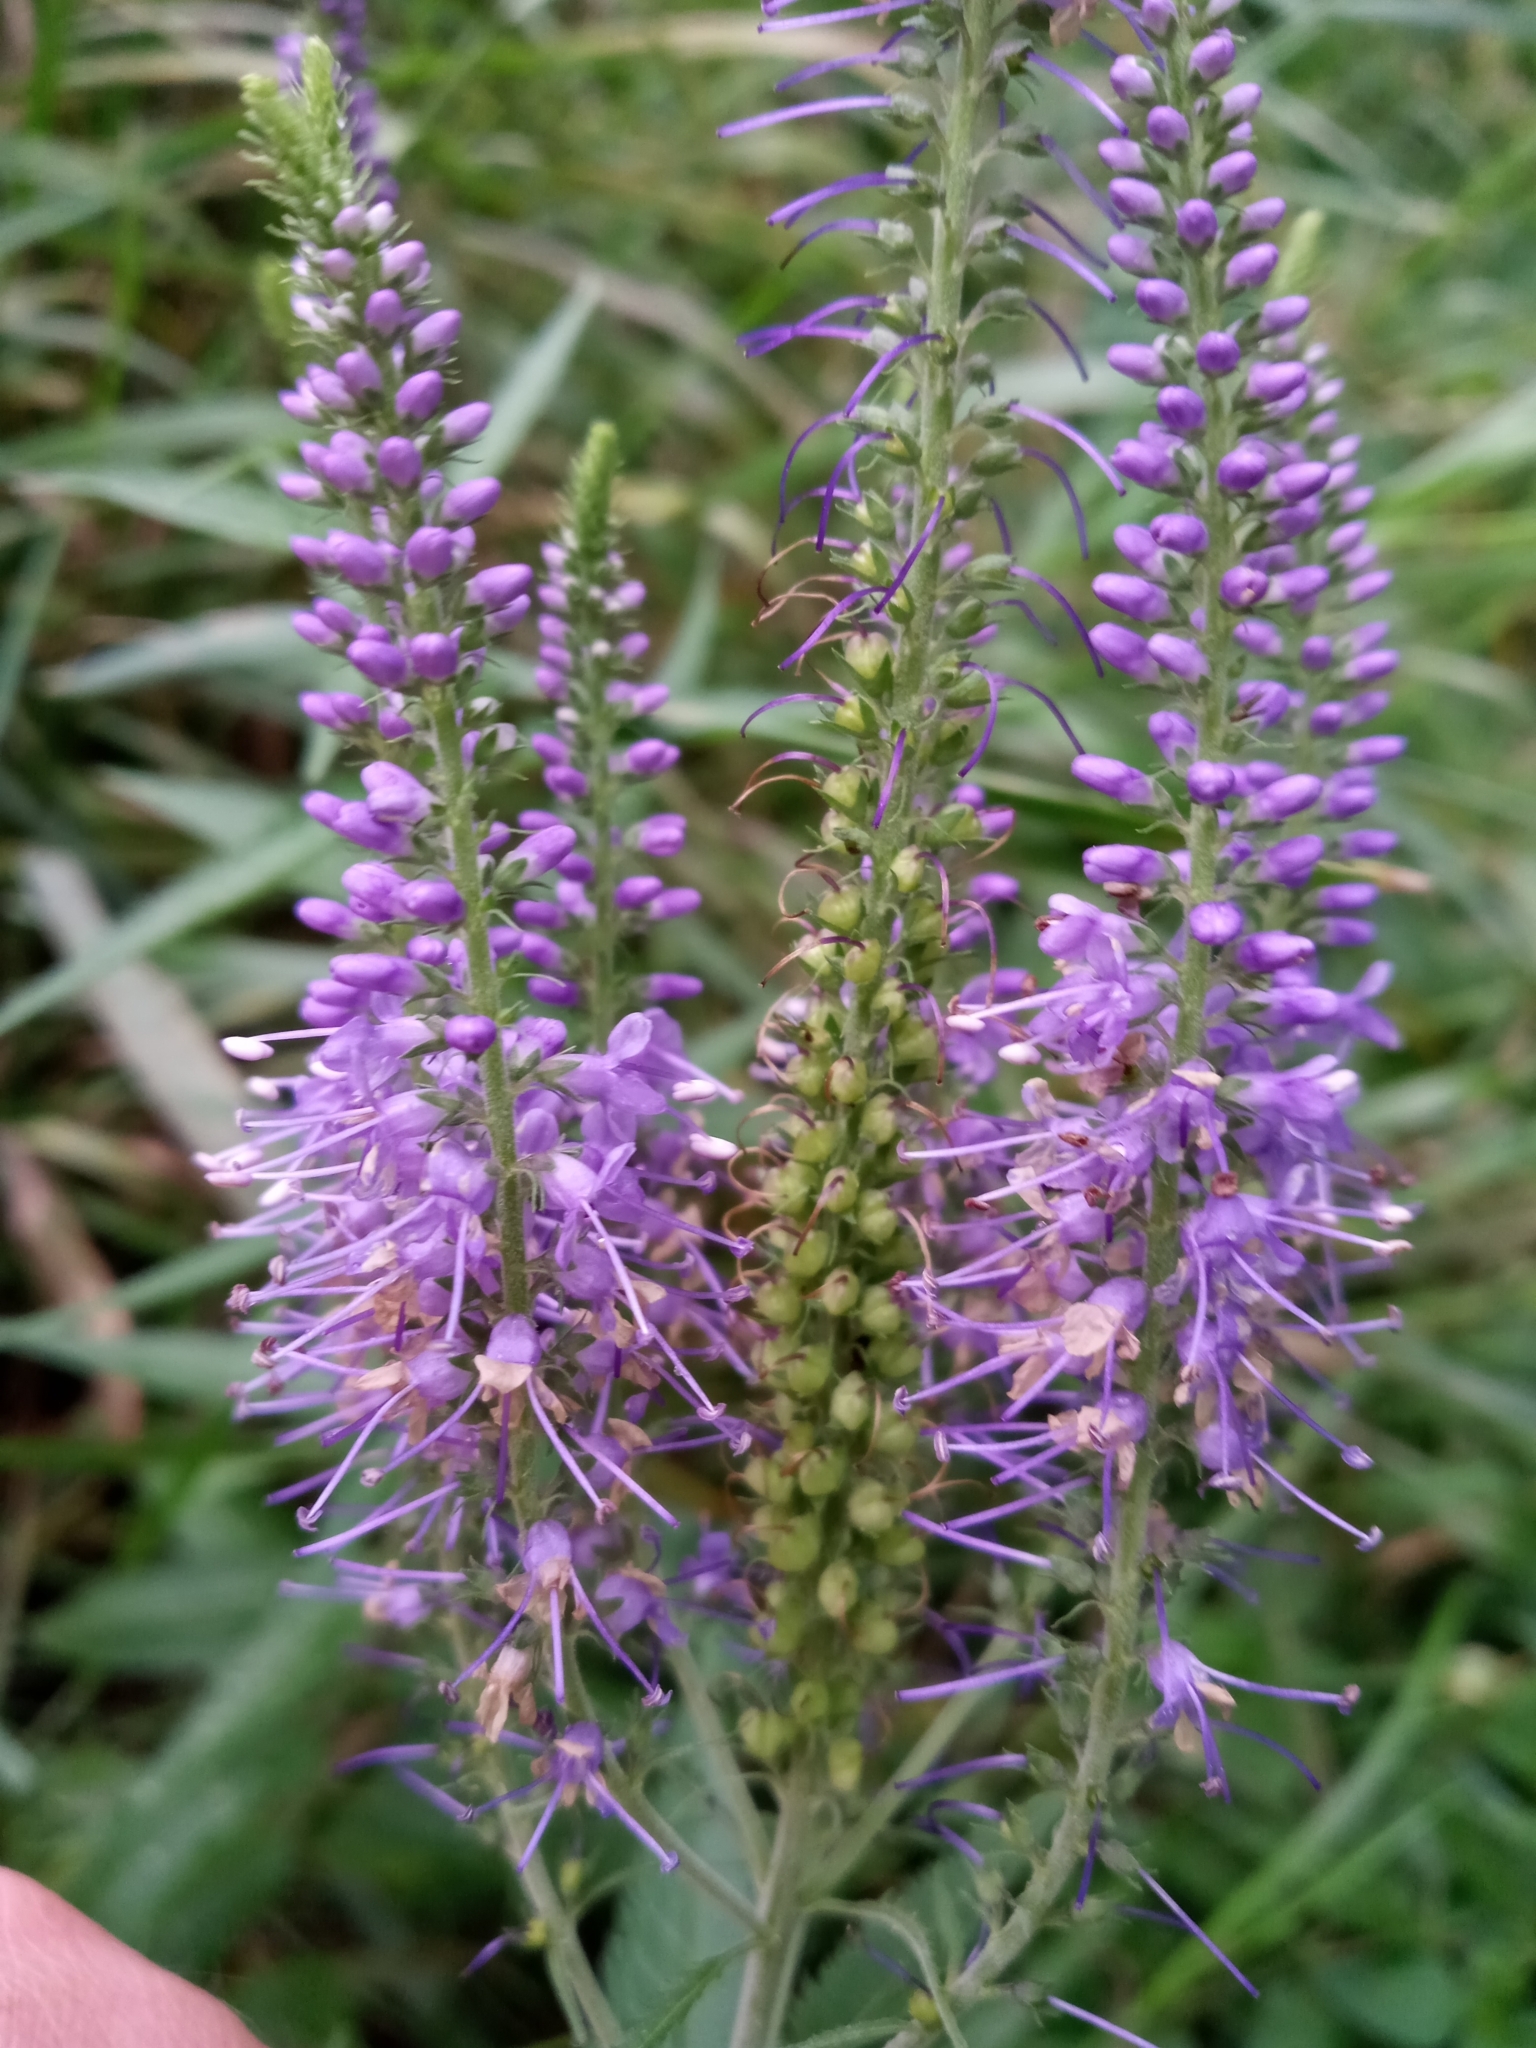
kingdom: Plantae
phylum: Tracheophyta
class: Magnoliopsida
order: Lamiales
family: Plantaginaceae
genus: Veronica
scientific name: Veronica longifolia
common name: Garden speedwell
